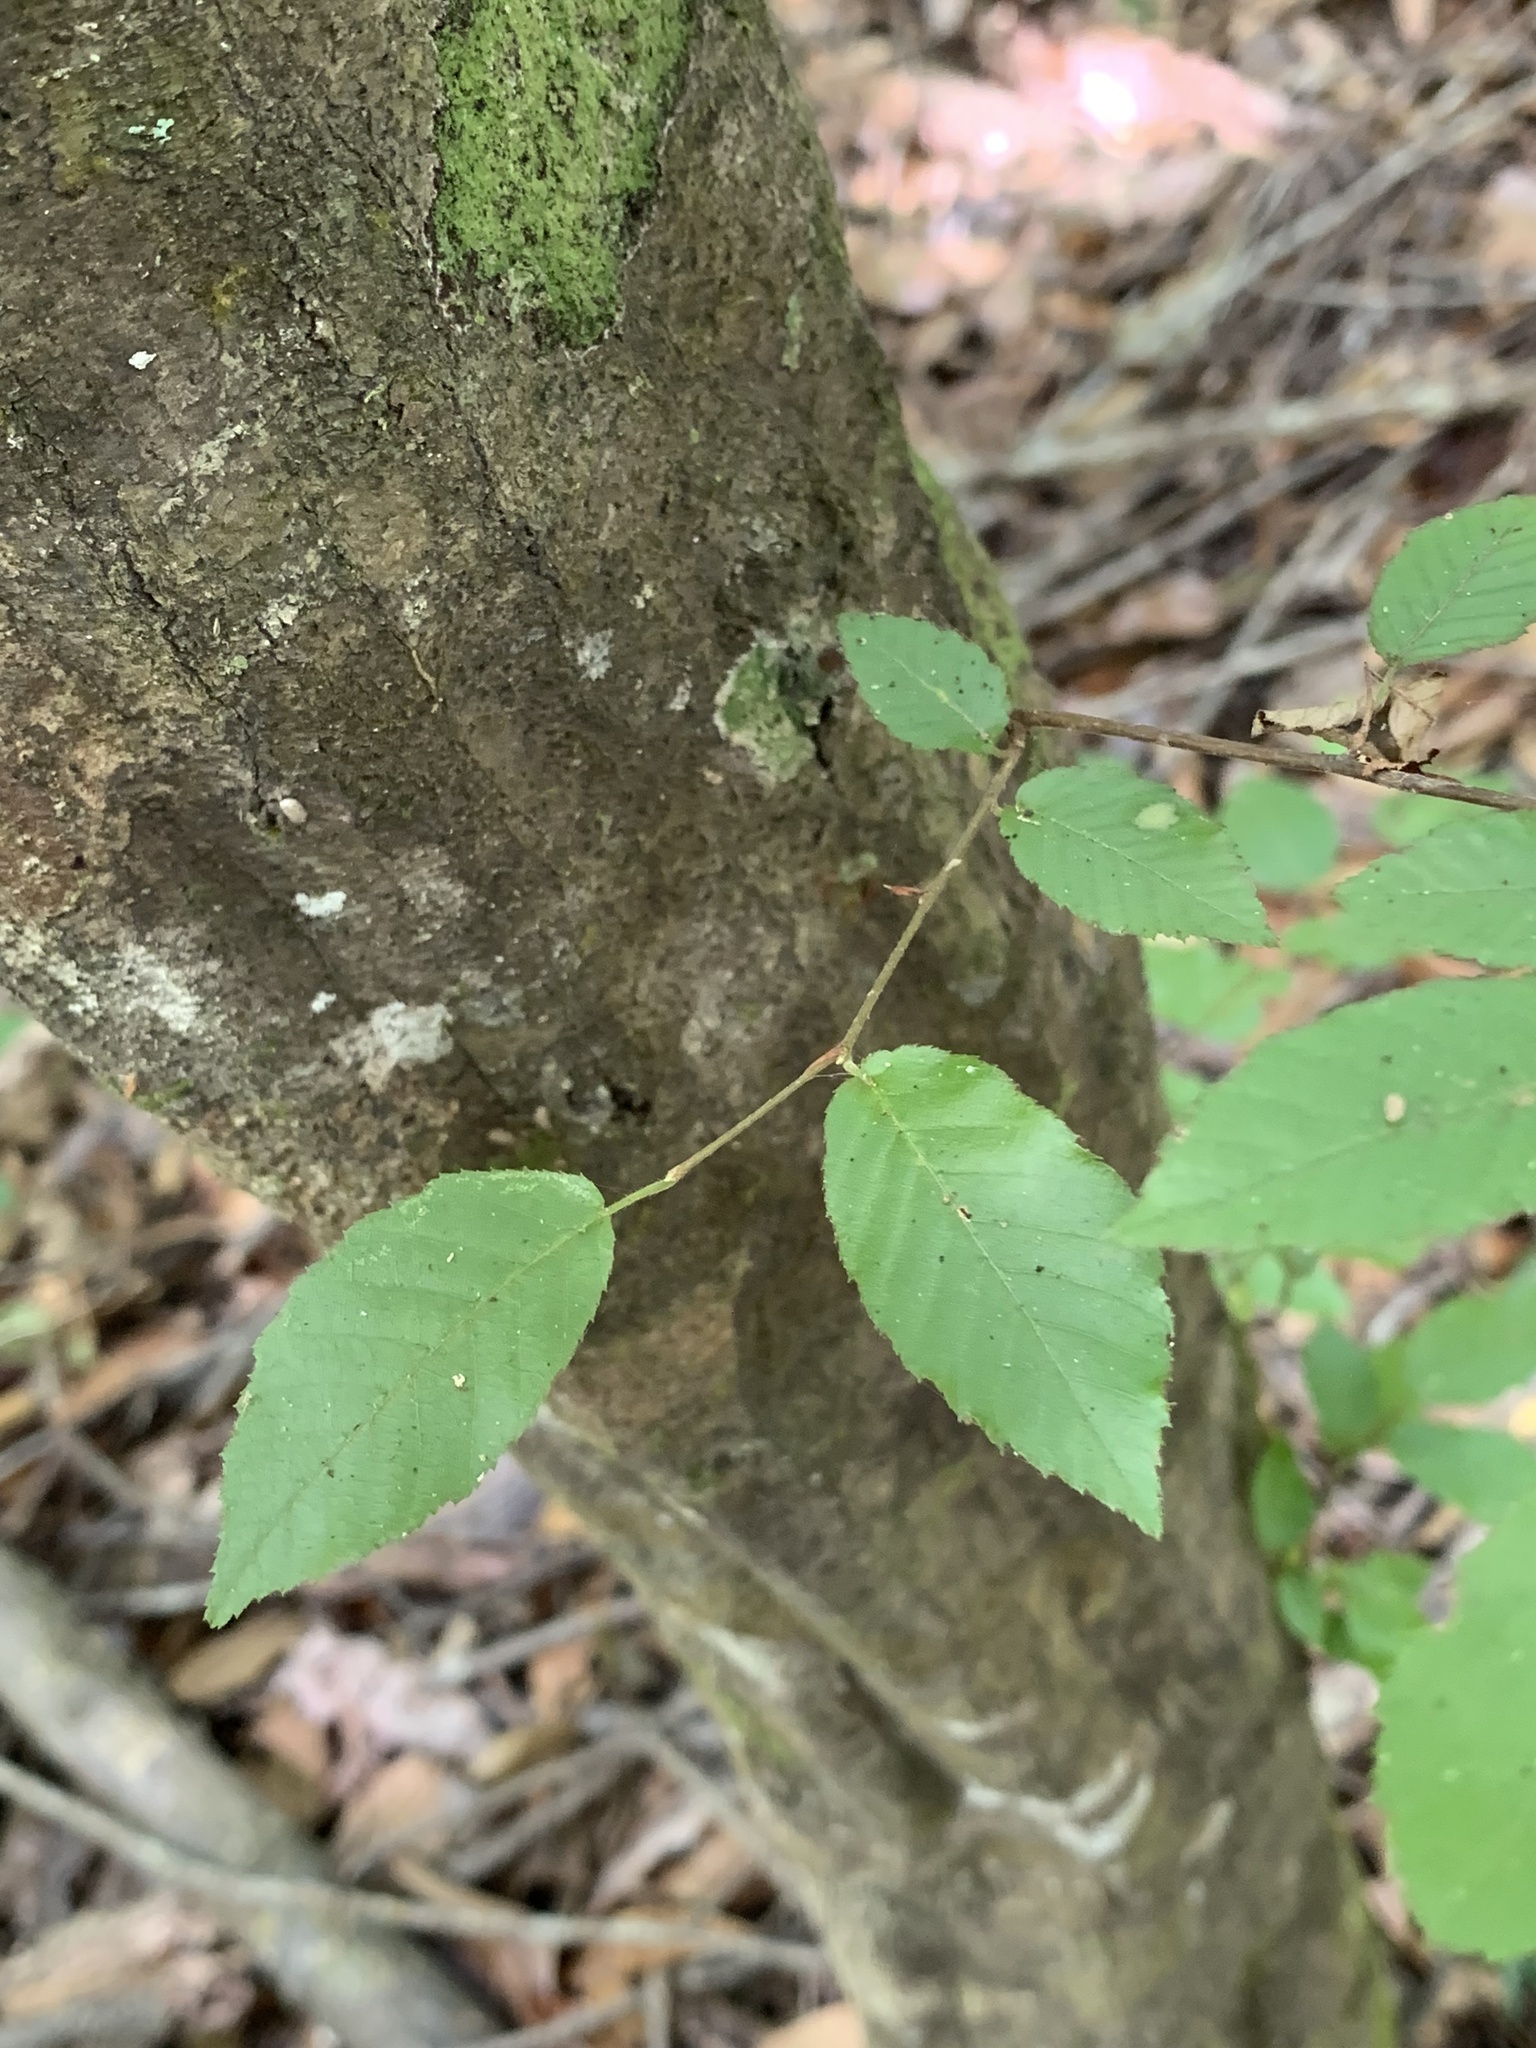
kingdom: Plantae
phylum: Tracheophyta
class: Magnoliopsida
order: Fagales
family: Betulaceae
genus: Carpinus
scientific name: Carpinus caroliniana
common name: American hornbeam
